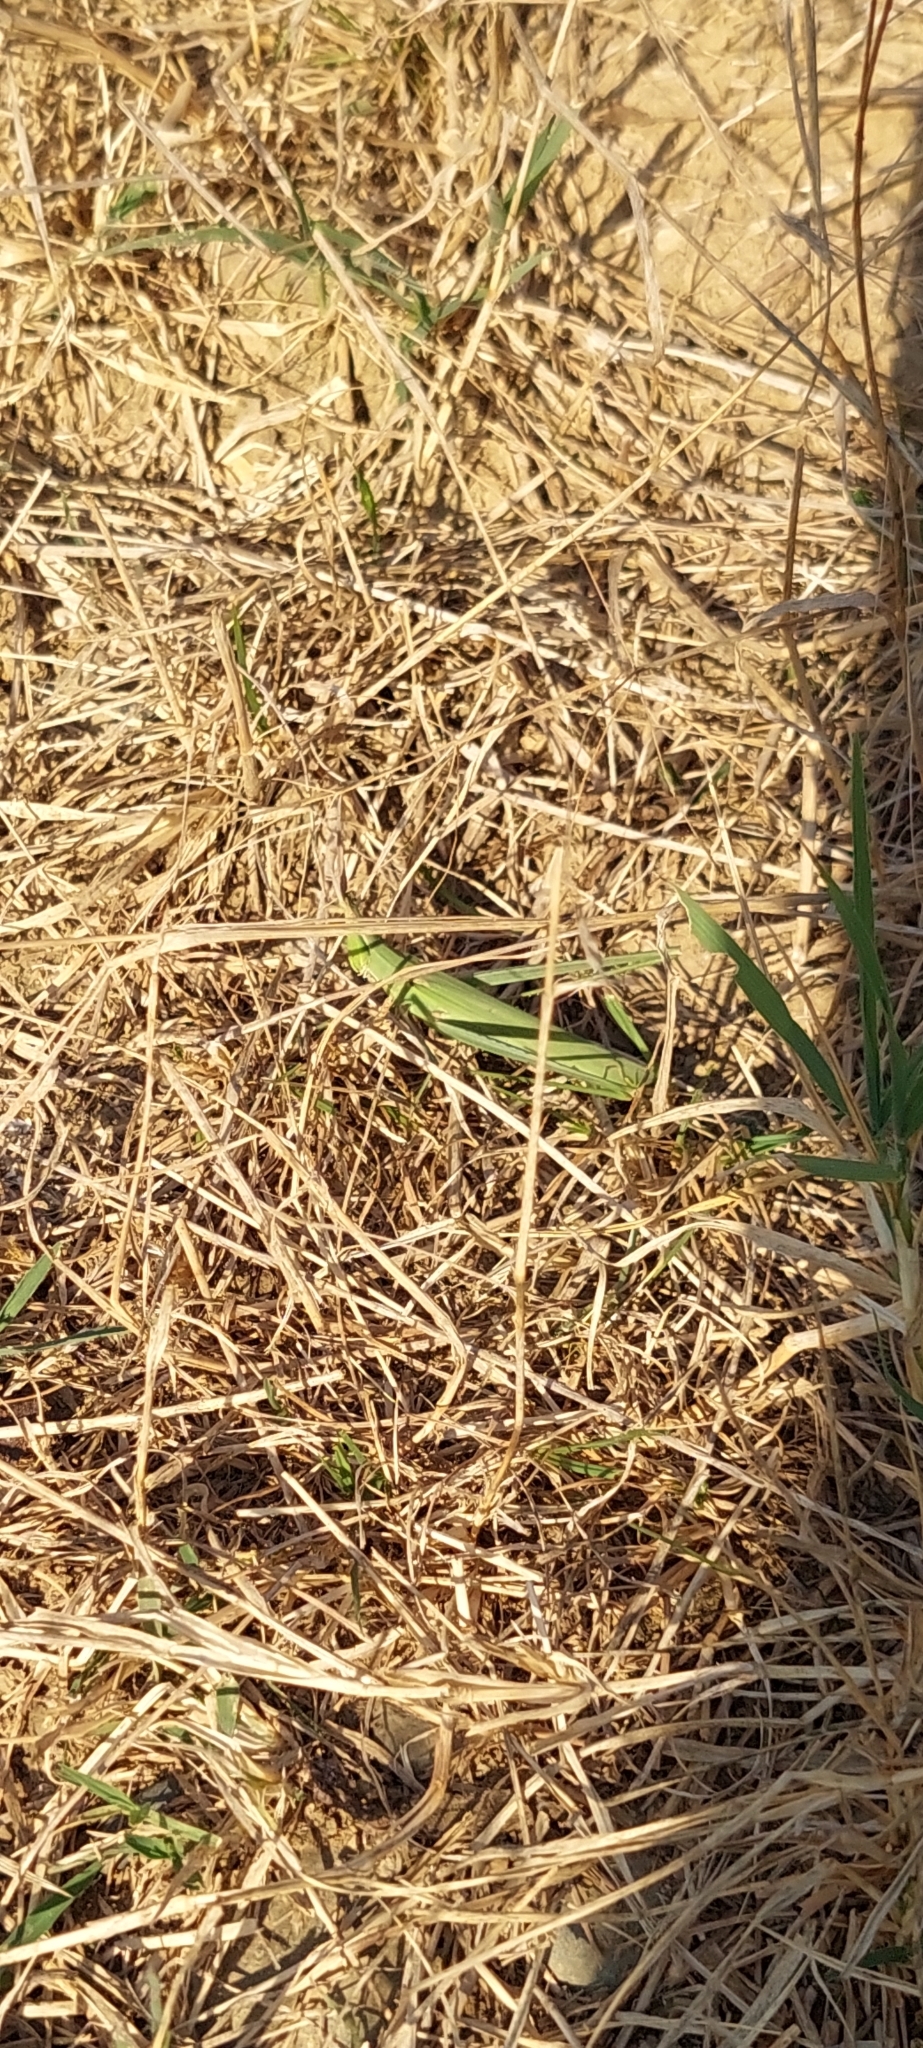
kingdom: Animalia
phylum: Arthropoda
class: Insecta
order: Orthoptera
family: Acrididae
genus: Acrida
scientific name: Acrida ungarica
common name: Common cone-headed grasshopper
